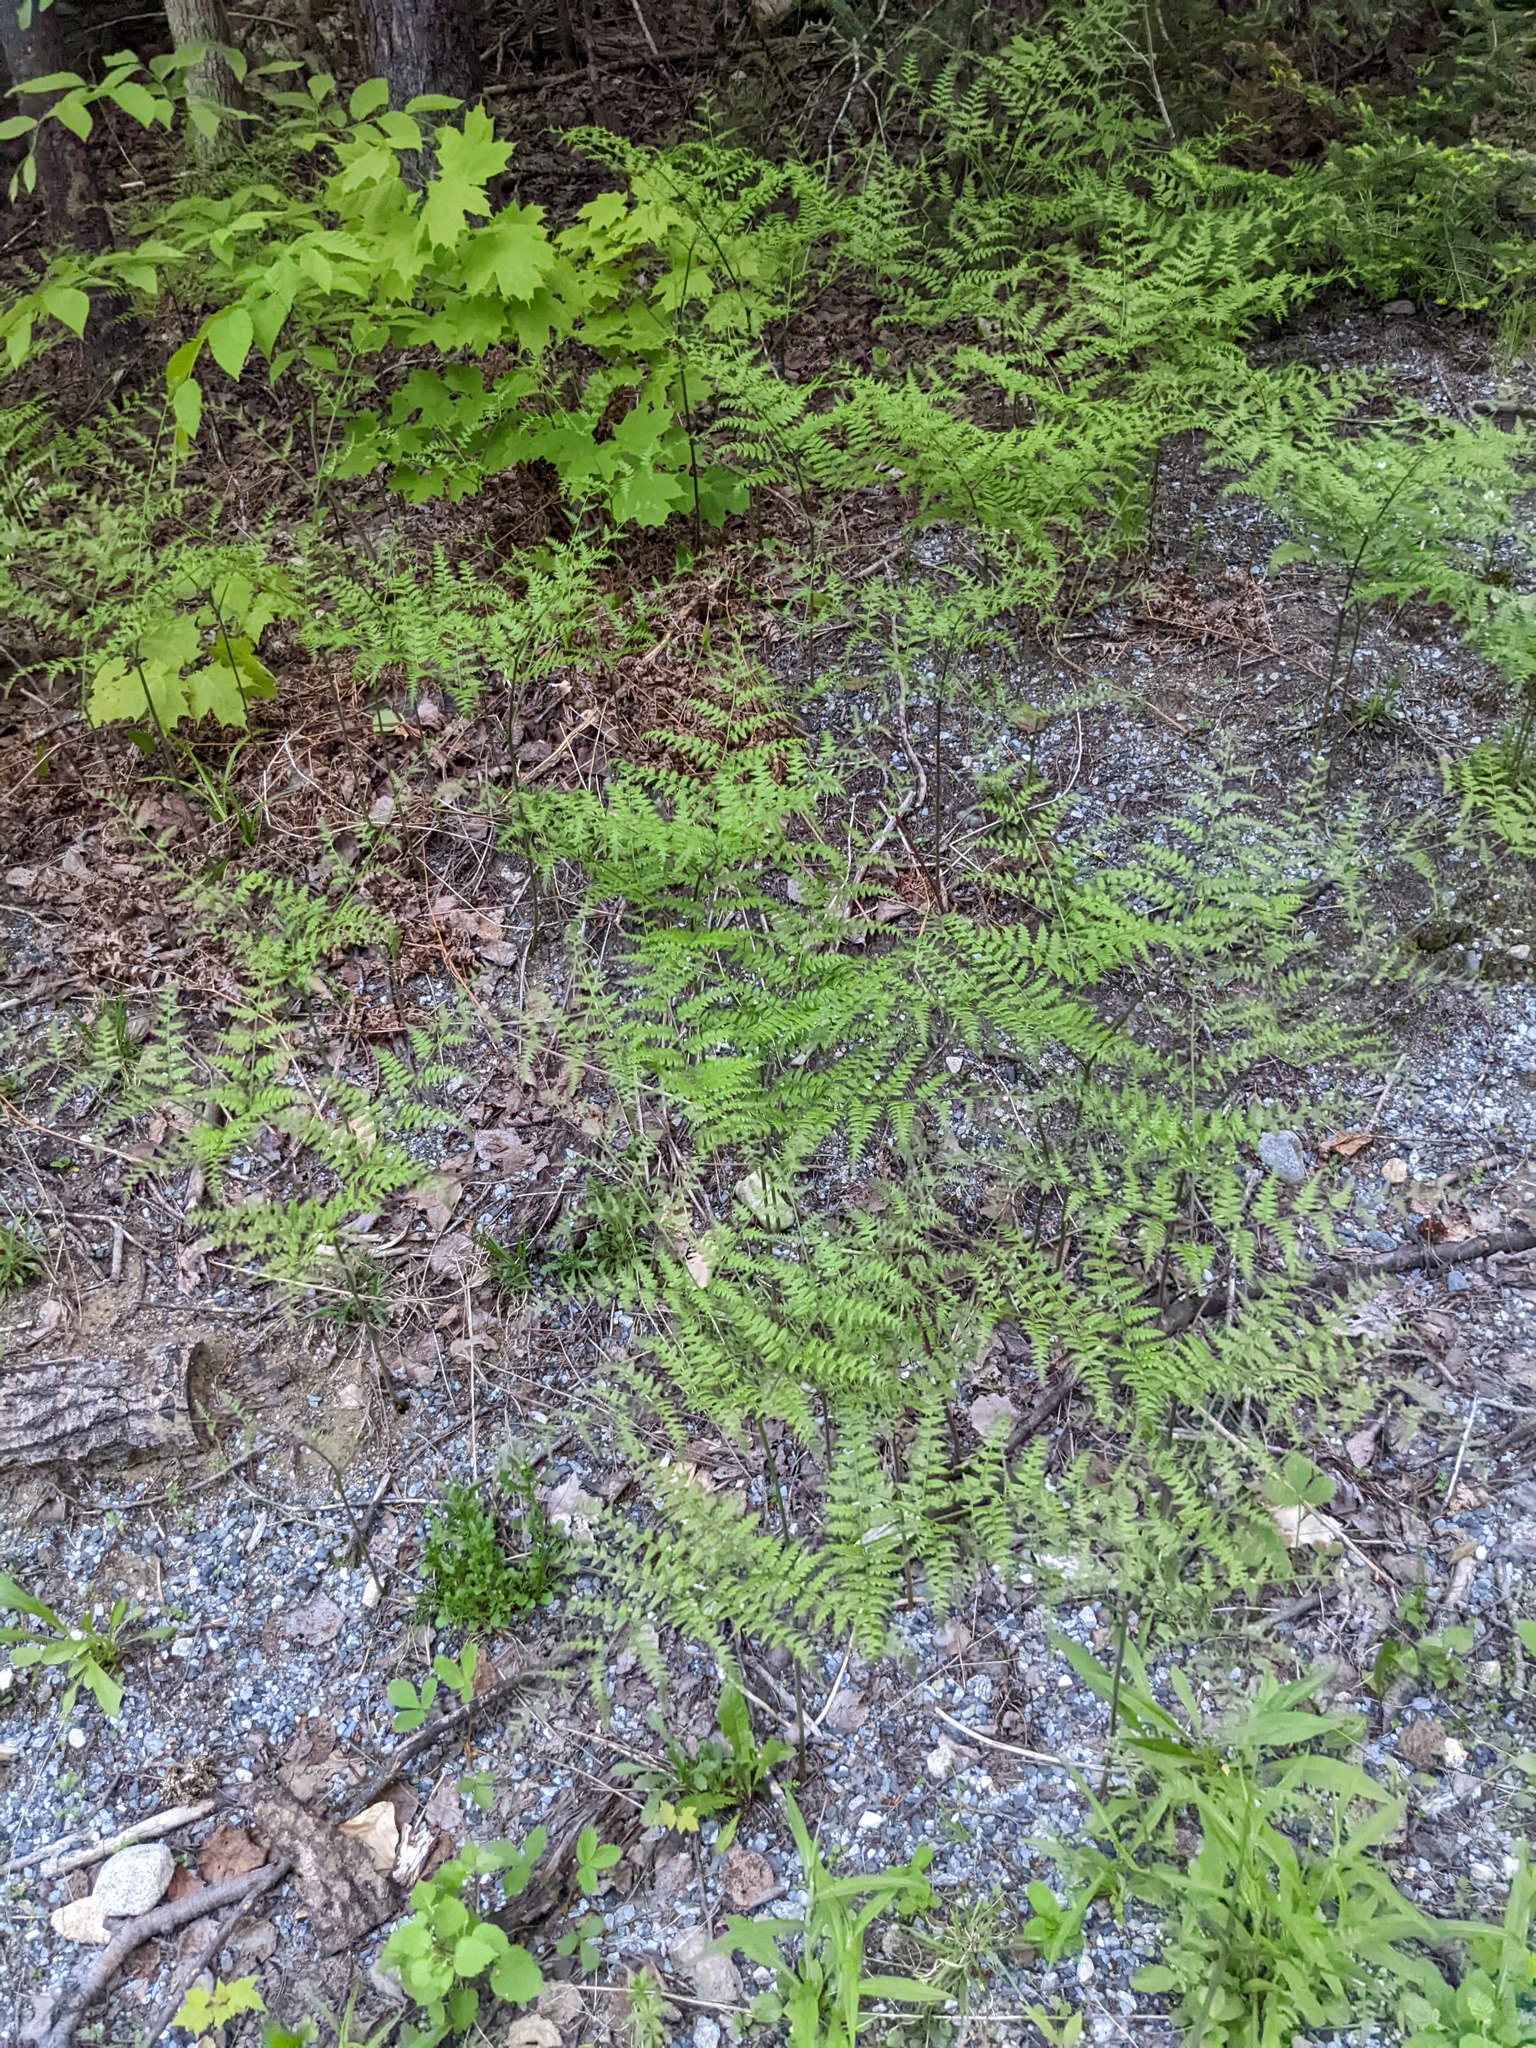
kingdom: Plantae
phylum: Tracheophyta
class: Polypodiopsida
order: Polypodiales
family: Dennstaedtiaceae
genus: Pteridium
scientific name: Pteridium aquilinum
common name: Bracken
